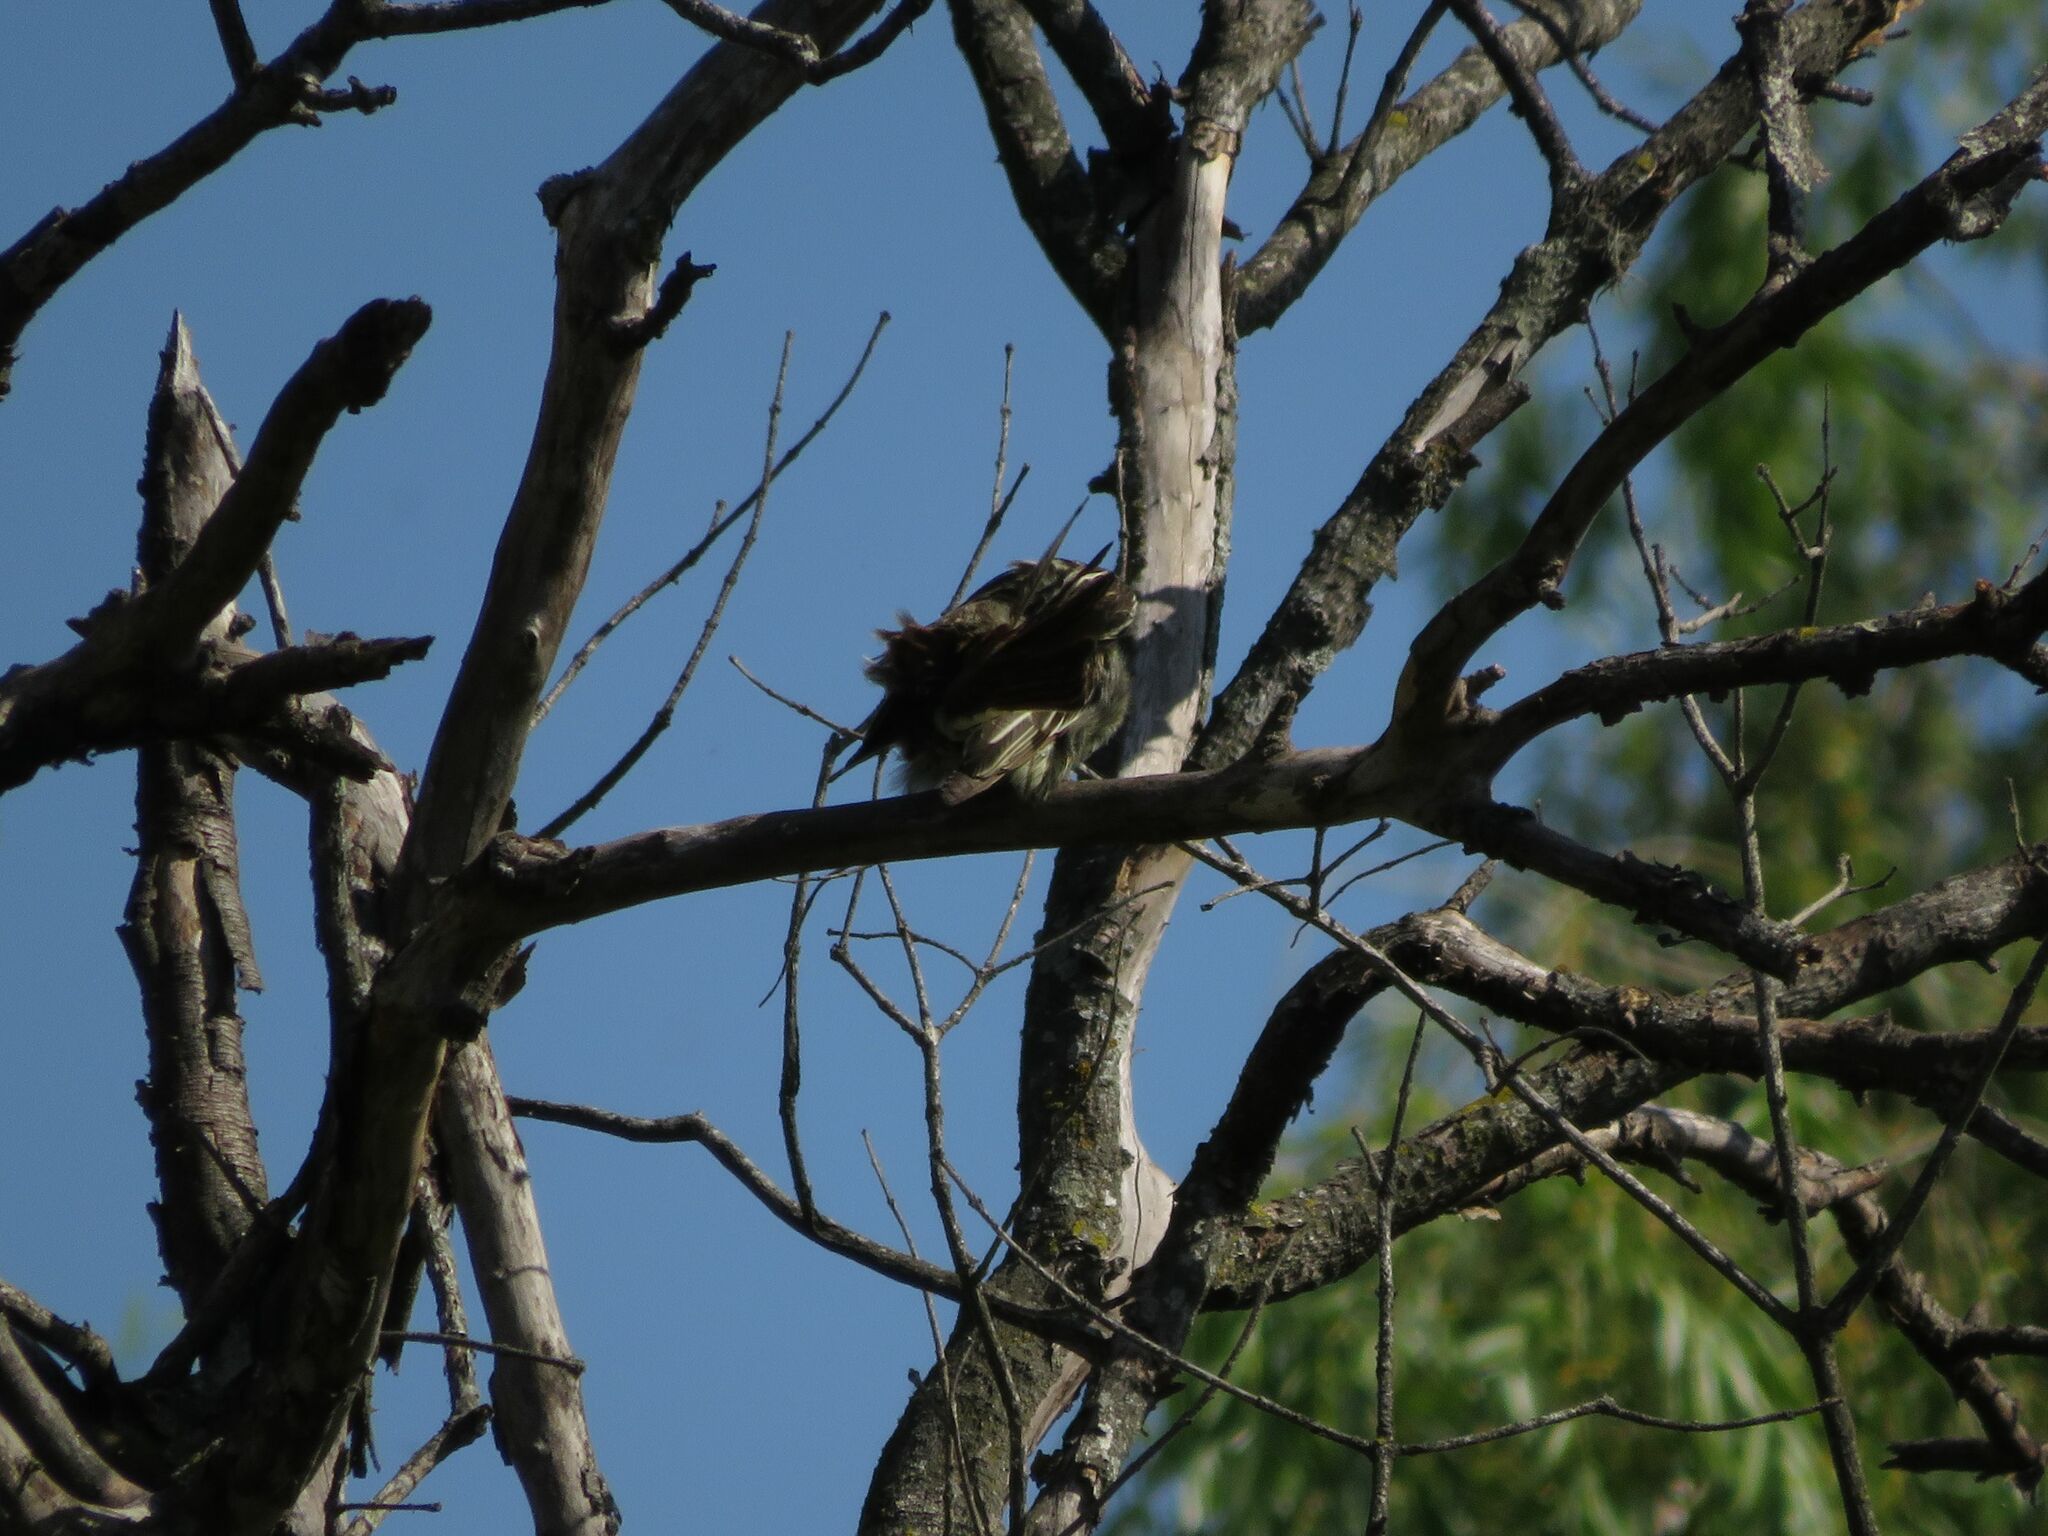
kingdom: Animalia
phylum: Chordata
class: Aves
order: Passeriformes
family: Tyrannidae
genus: Myiodynastes
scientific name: Myiodynastes maculatus
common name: Streaked flycatcher
